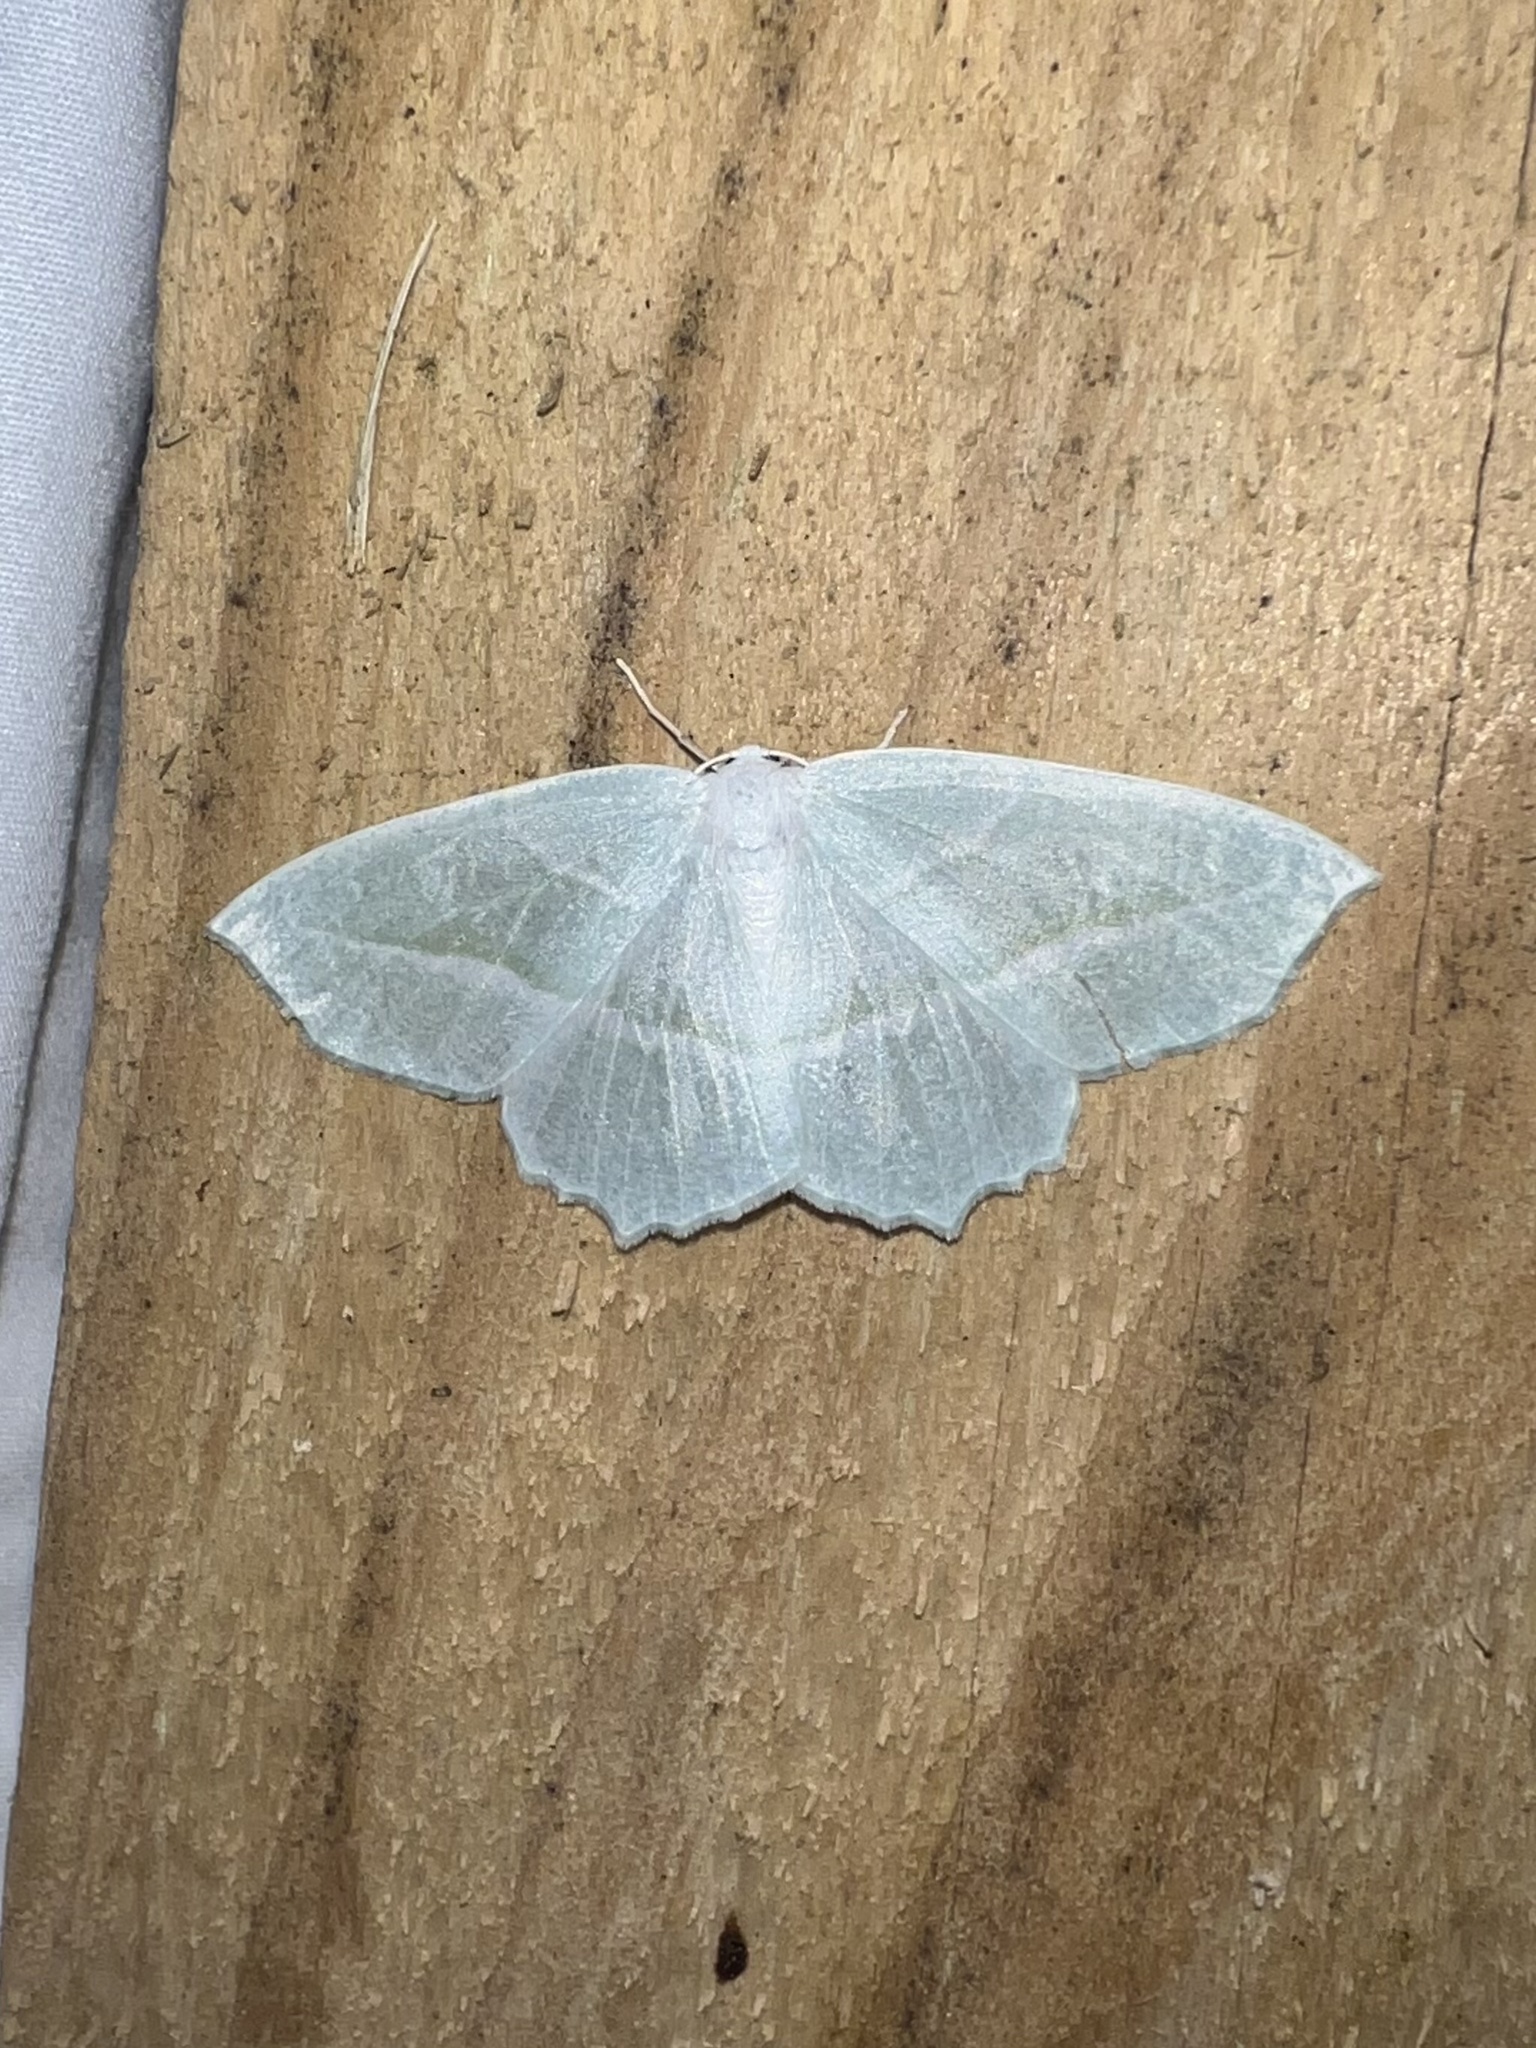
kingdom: Animalia
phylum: Arthropoda
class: Insecta
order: Lepidoptera
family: Geometridae
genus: Campaea
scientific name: Campaea perlata
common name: Fringed looper
